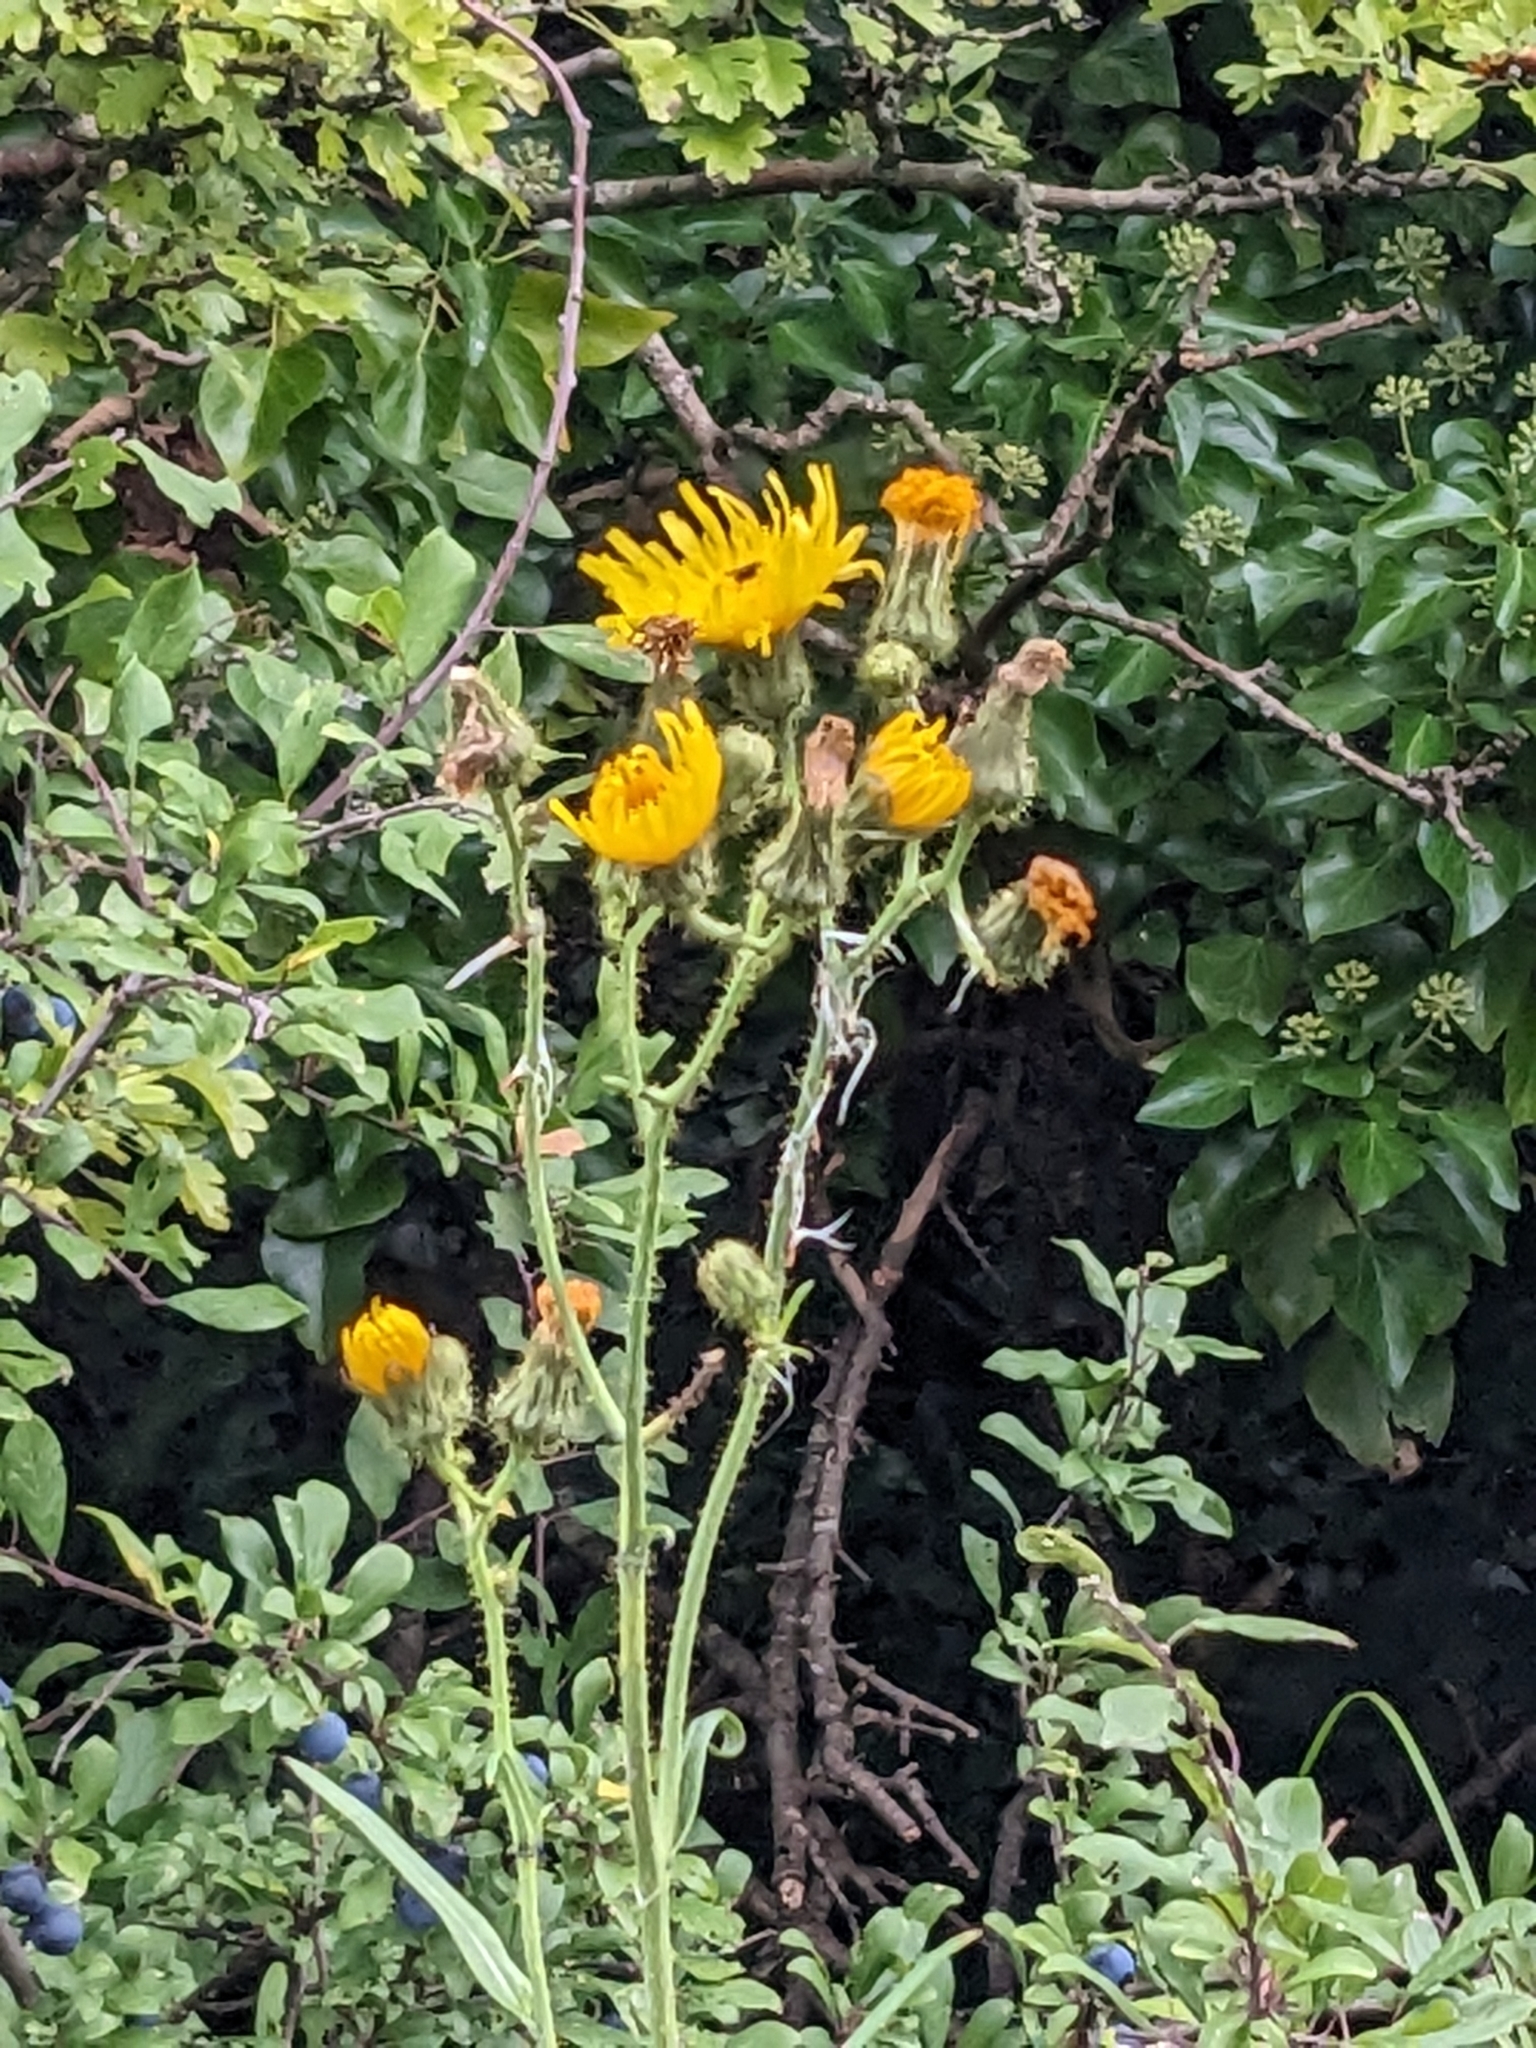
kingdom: Plantae
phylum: Tracheophyta
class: Magnoliopsida
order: Asterales
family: Asteraceae
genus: Sonchus
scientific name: Sonchus arvensis
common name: Perennial sow-thistle
